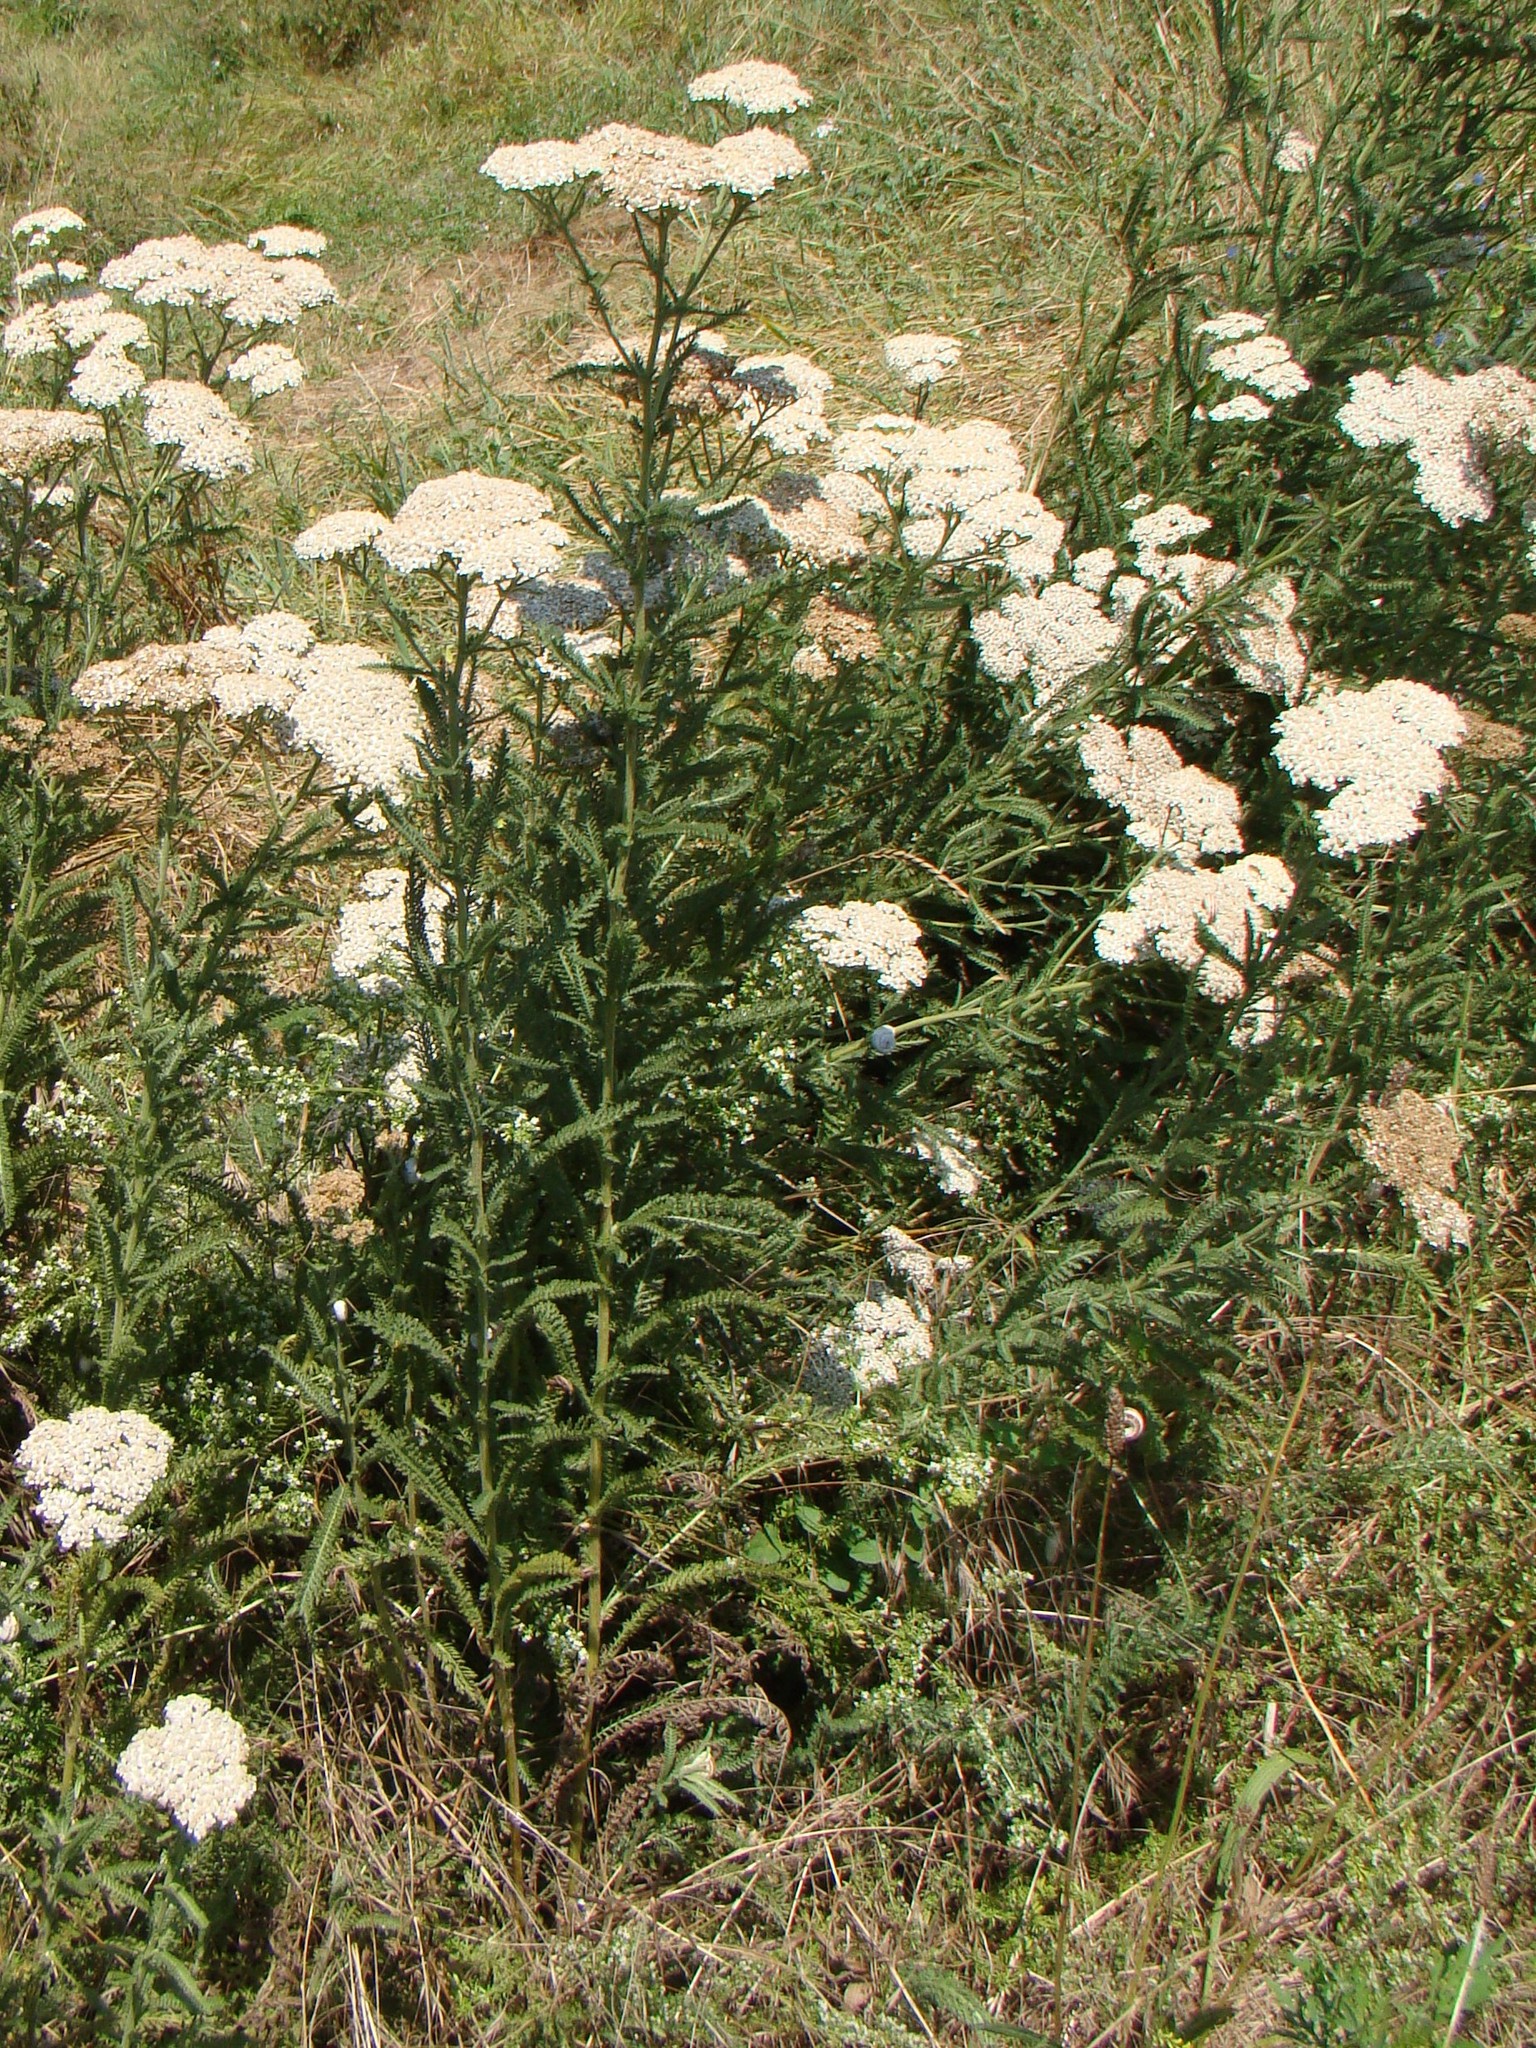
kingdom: Plantae
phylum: Tracheophyta
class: Magnoliopsida
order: Asterales
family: Asteraceae
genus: Achillea
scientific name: Achillea millefolium
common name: Yarrow
